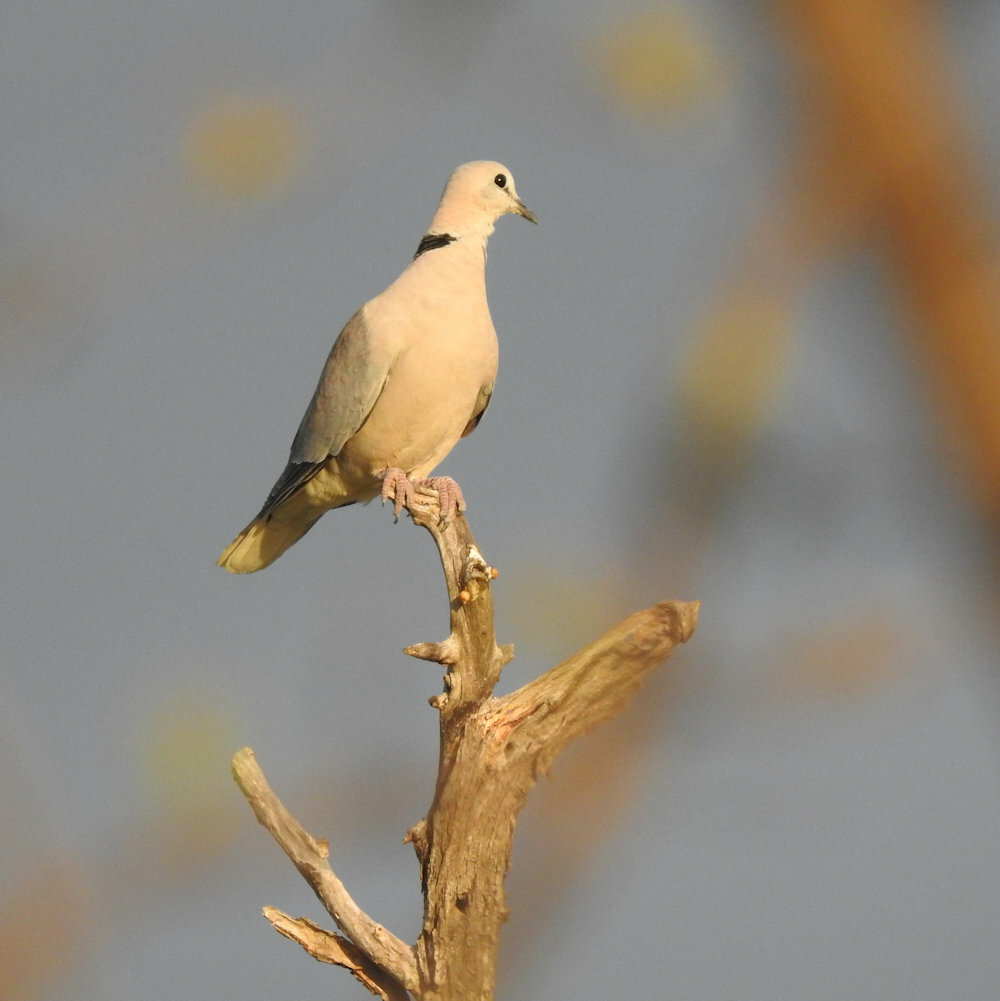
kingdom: Animalia
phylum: Chordata
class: Aves
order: Columbiformes
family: Columbidae
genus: Streptopelia
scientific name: Streptopelia capicola
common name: Ring-necked dove
